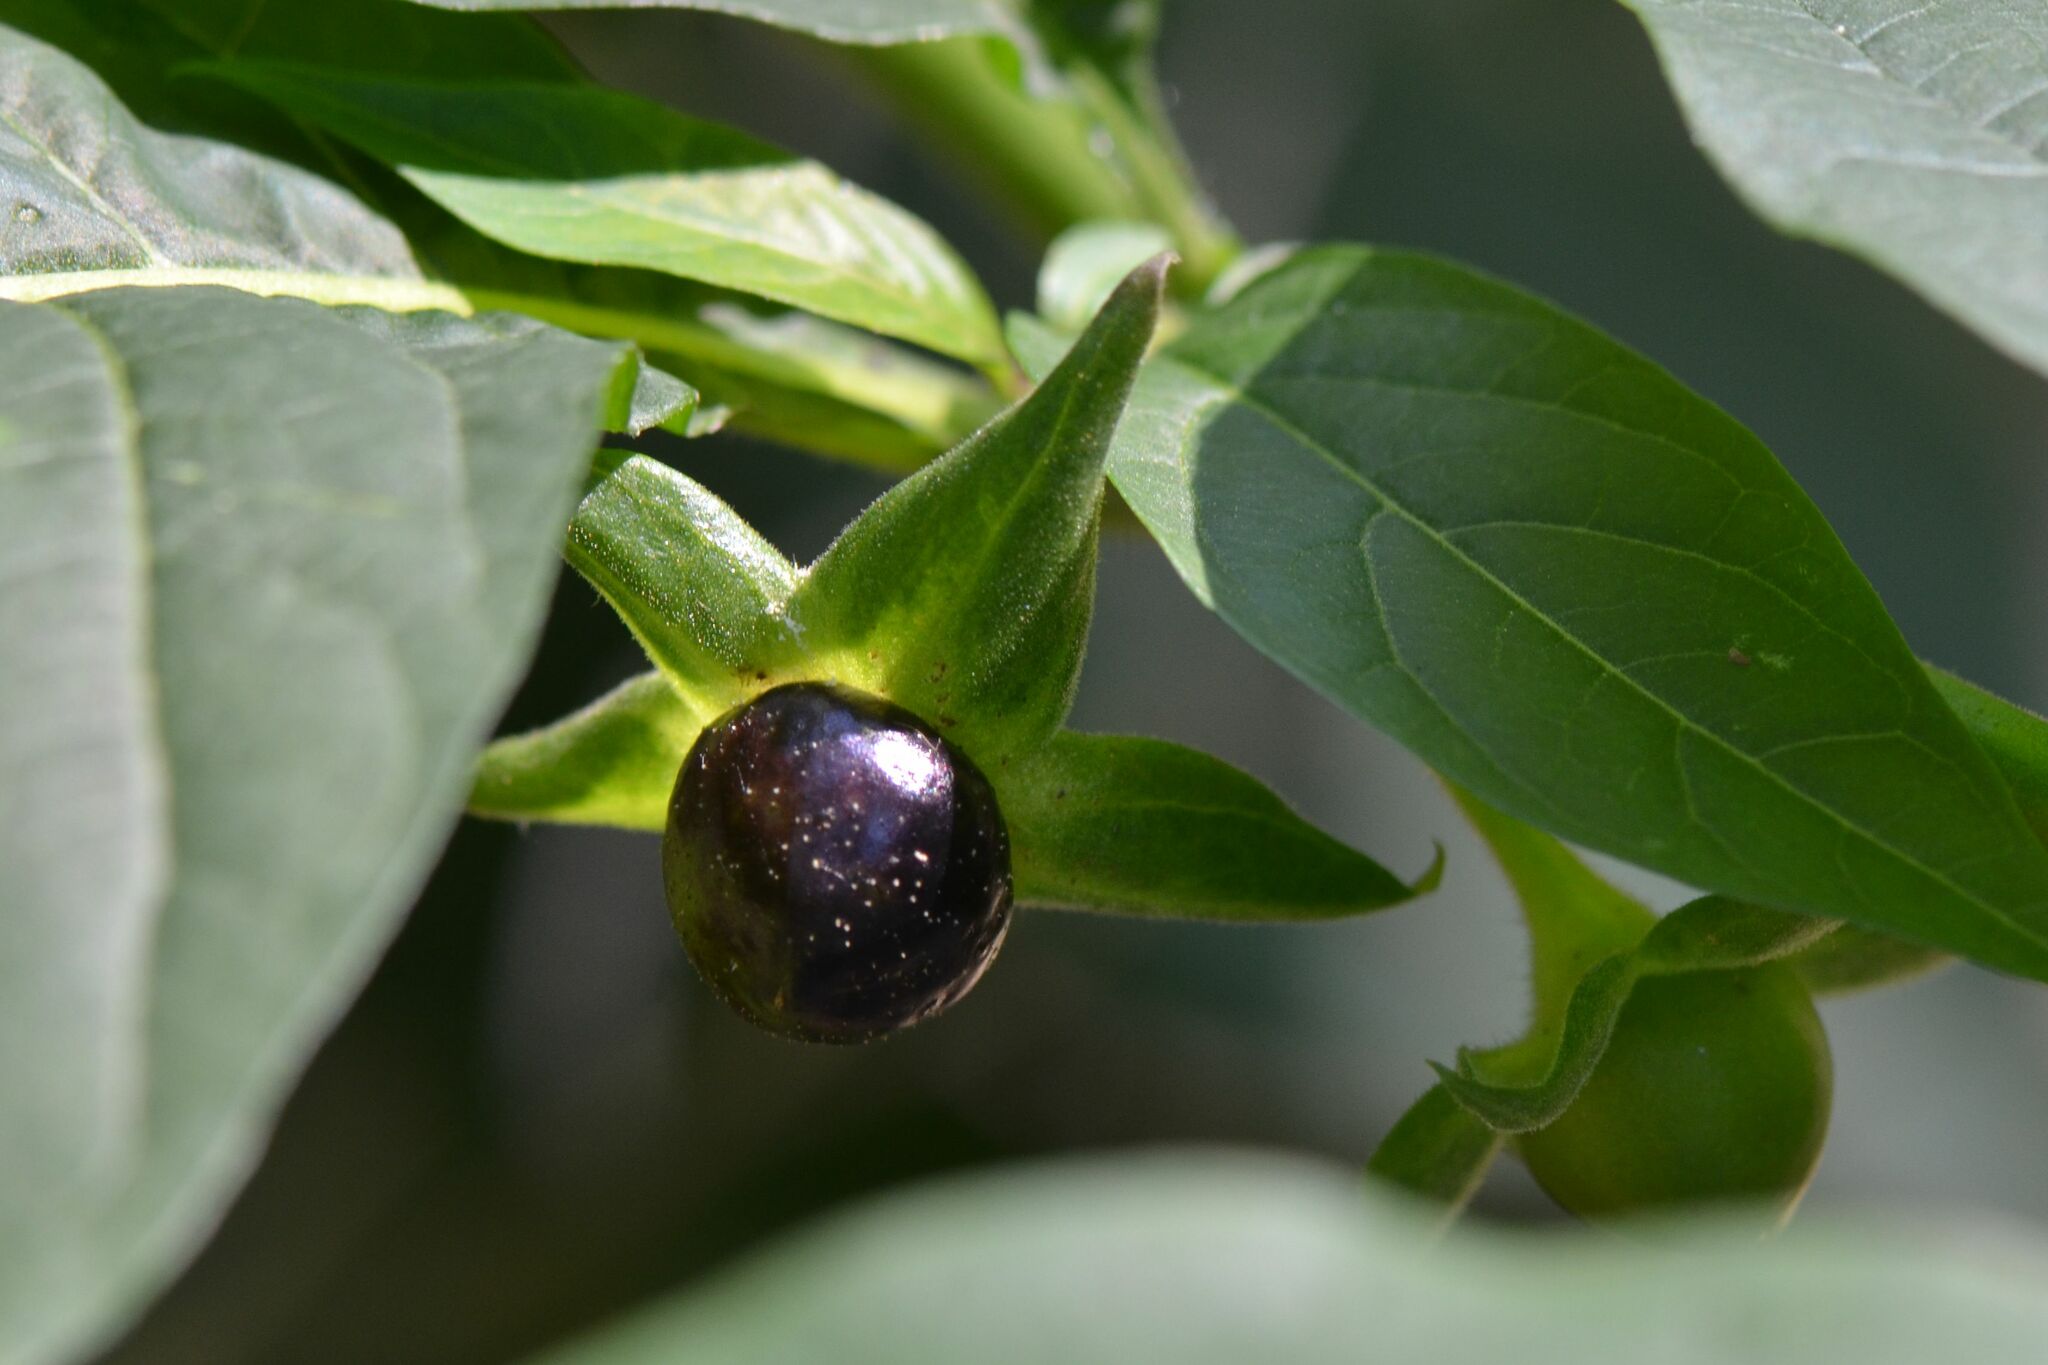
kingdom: Plantae
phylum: Tracheophyta
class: Magnoliopsida
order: Solanales
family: Solanaceae
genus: Atropa
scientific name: Atropa belladonna
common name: Deadly nightshade
